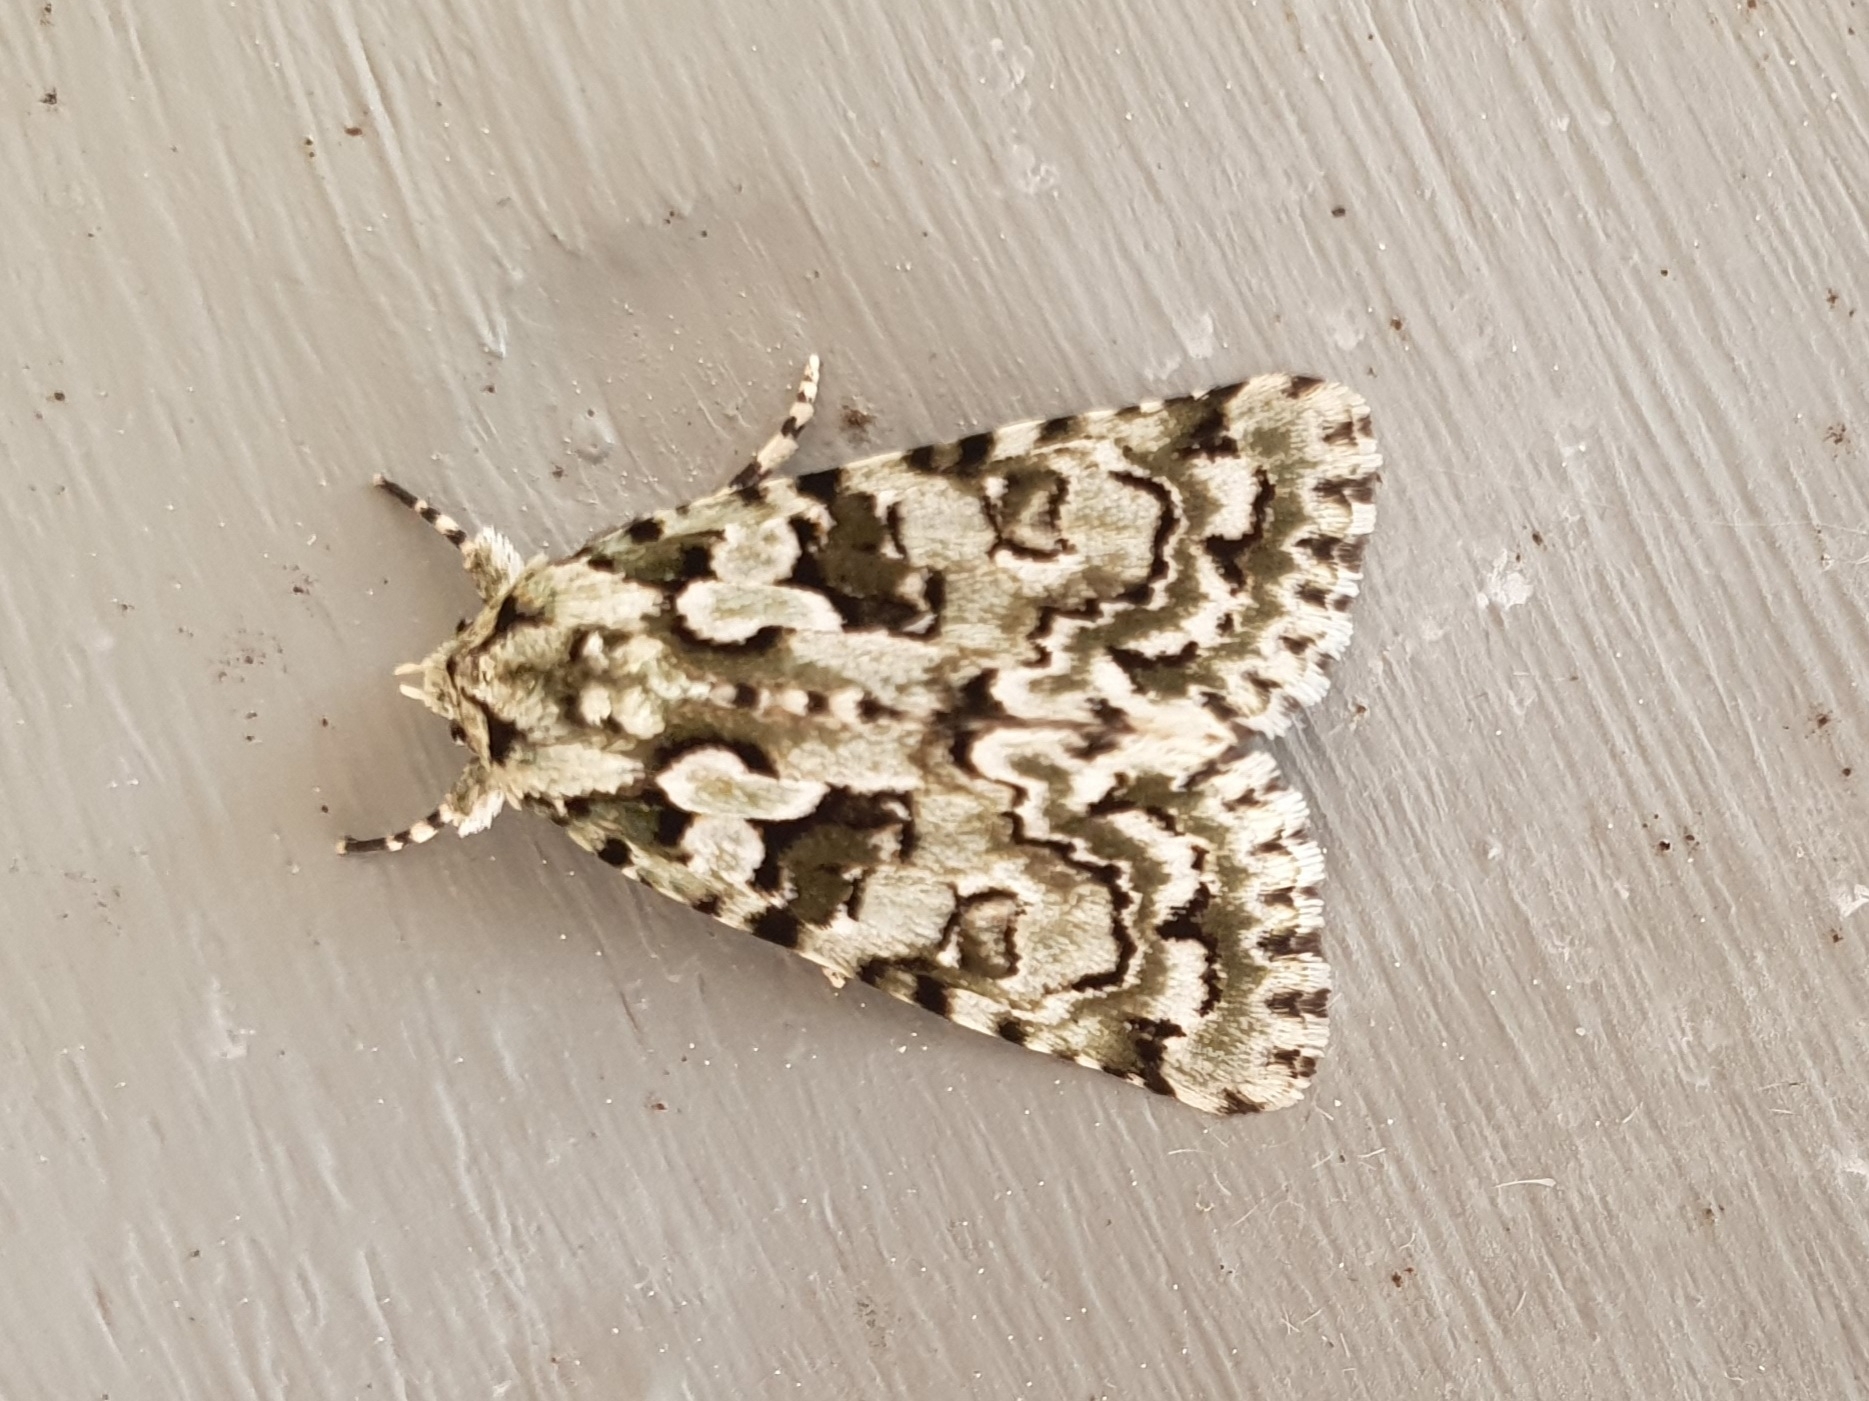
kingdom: Animalia
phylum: Arthropoda
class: Insecta
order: Lepidoptera
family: Noctuidae
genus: Nyctobrya
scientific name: Nyctobrya muralis
